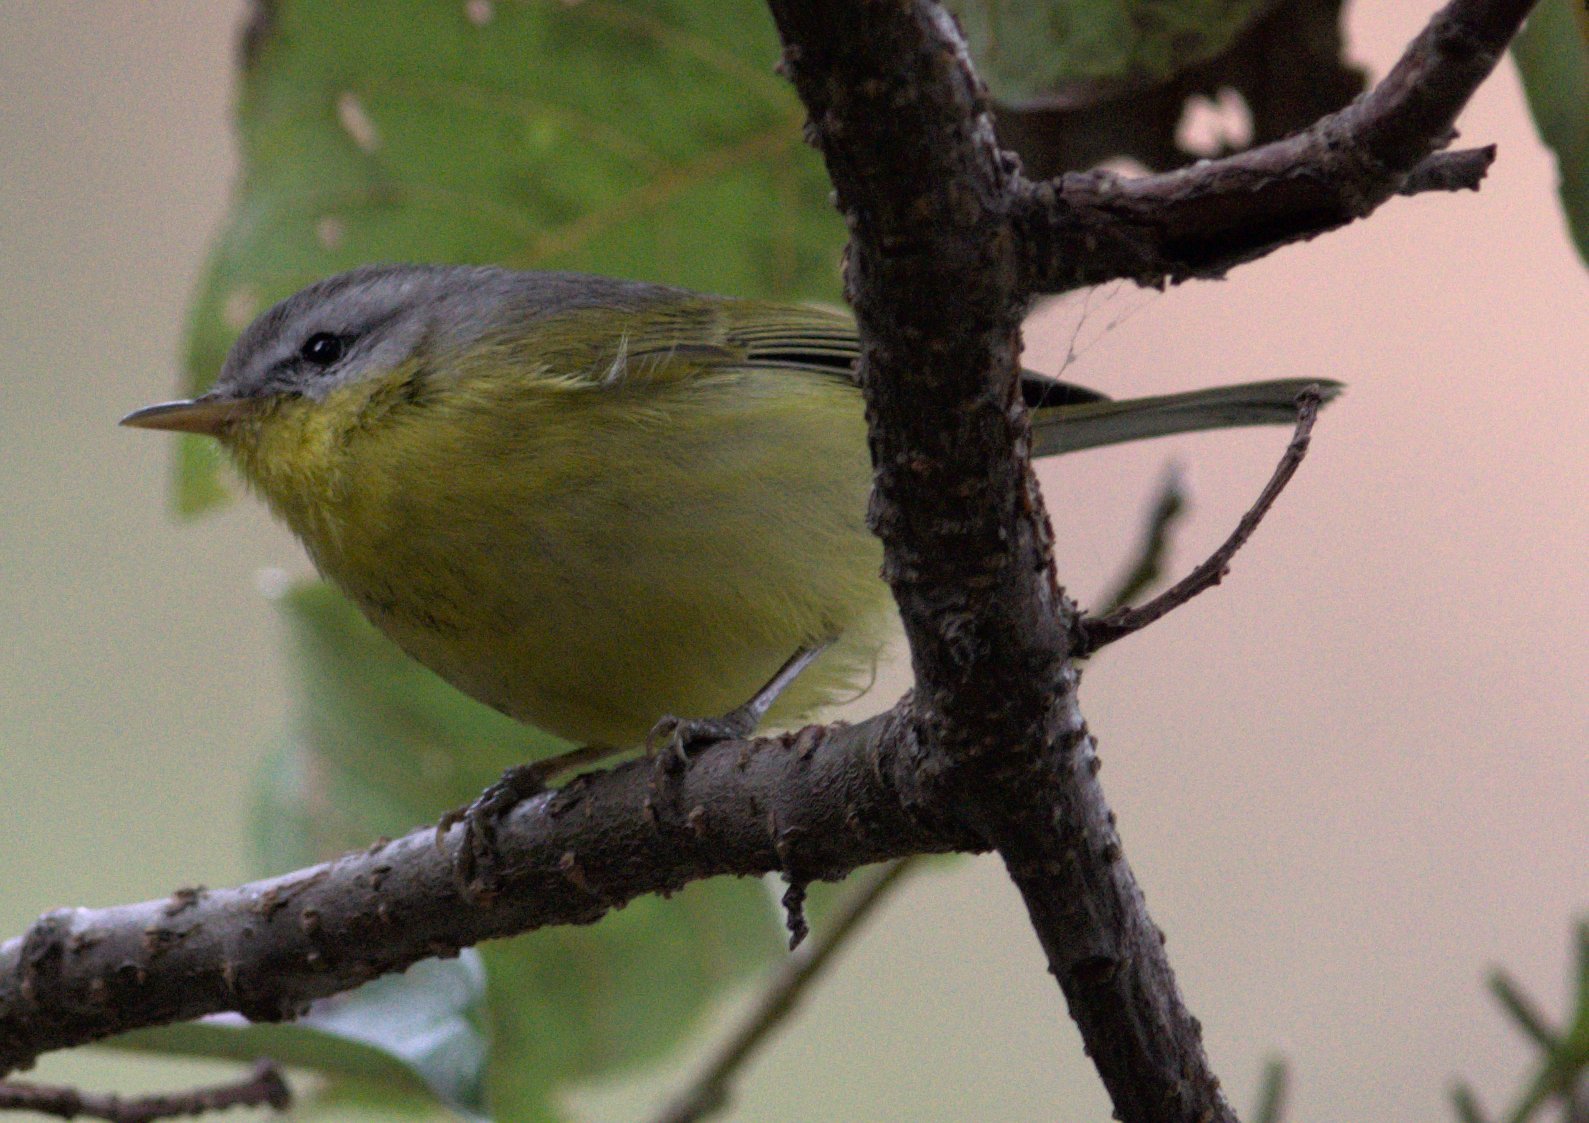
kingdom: Animalia
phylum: Chordata
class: Aves
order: Passeriformes
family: Phylloscopidae
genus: Phylloscopus
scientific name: Phylloscopus xanthoschistos
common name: Grey-hooded warbler
